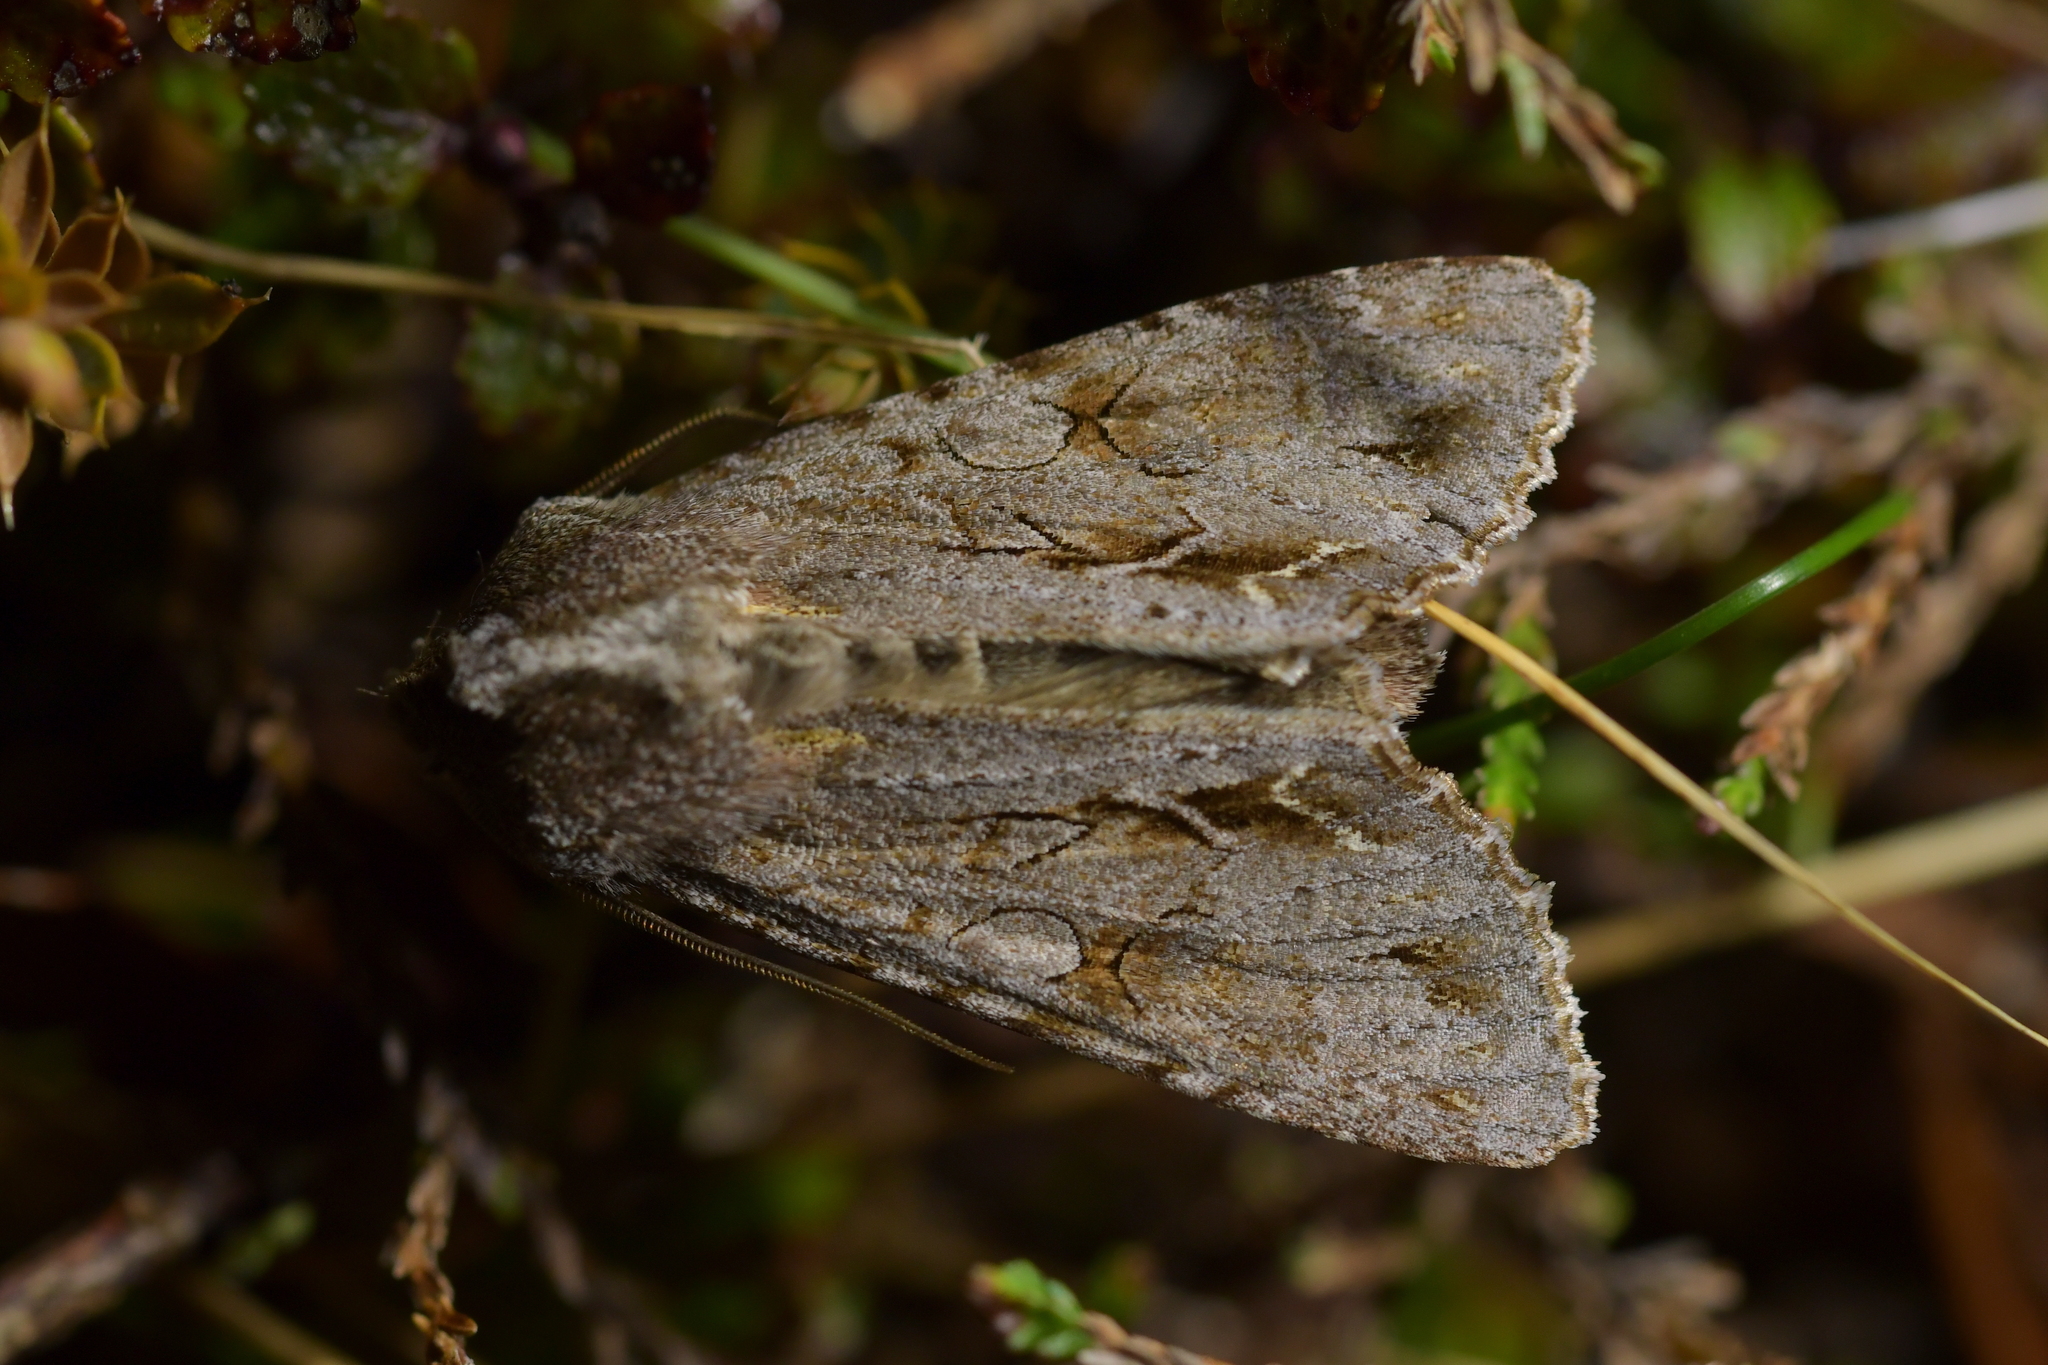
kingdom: Animalia
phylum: Arthropoda
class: Insecta
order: Lepidoptera
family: Noctuidae
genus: Ichneutica
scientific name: Ichneutica
